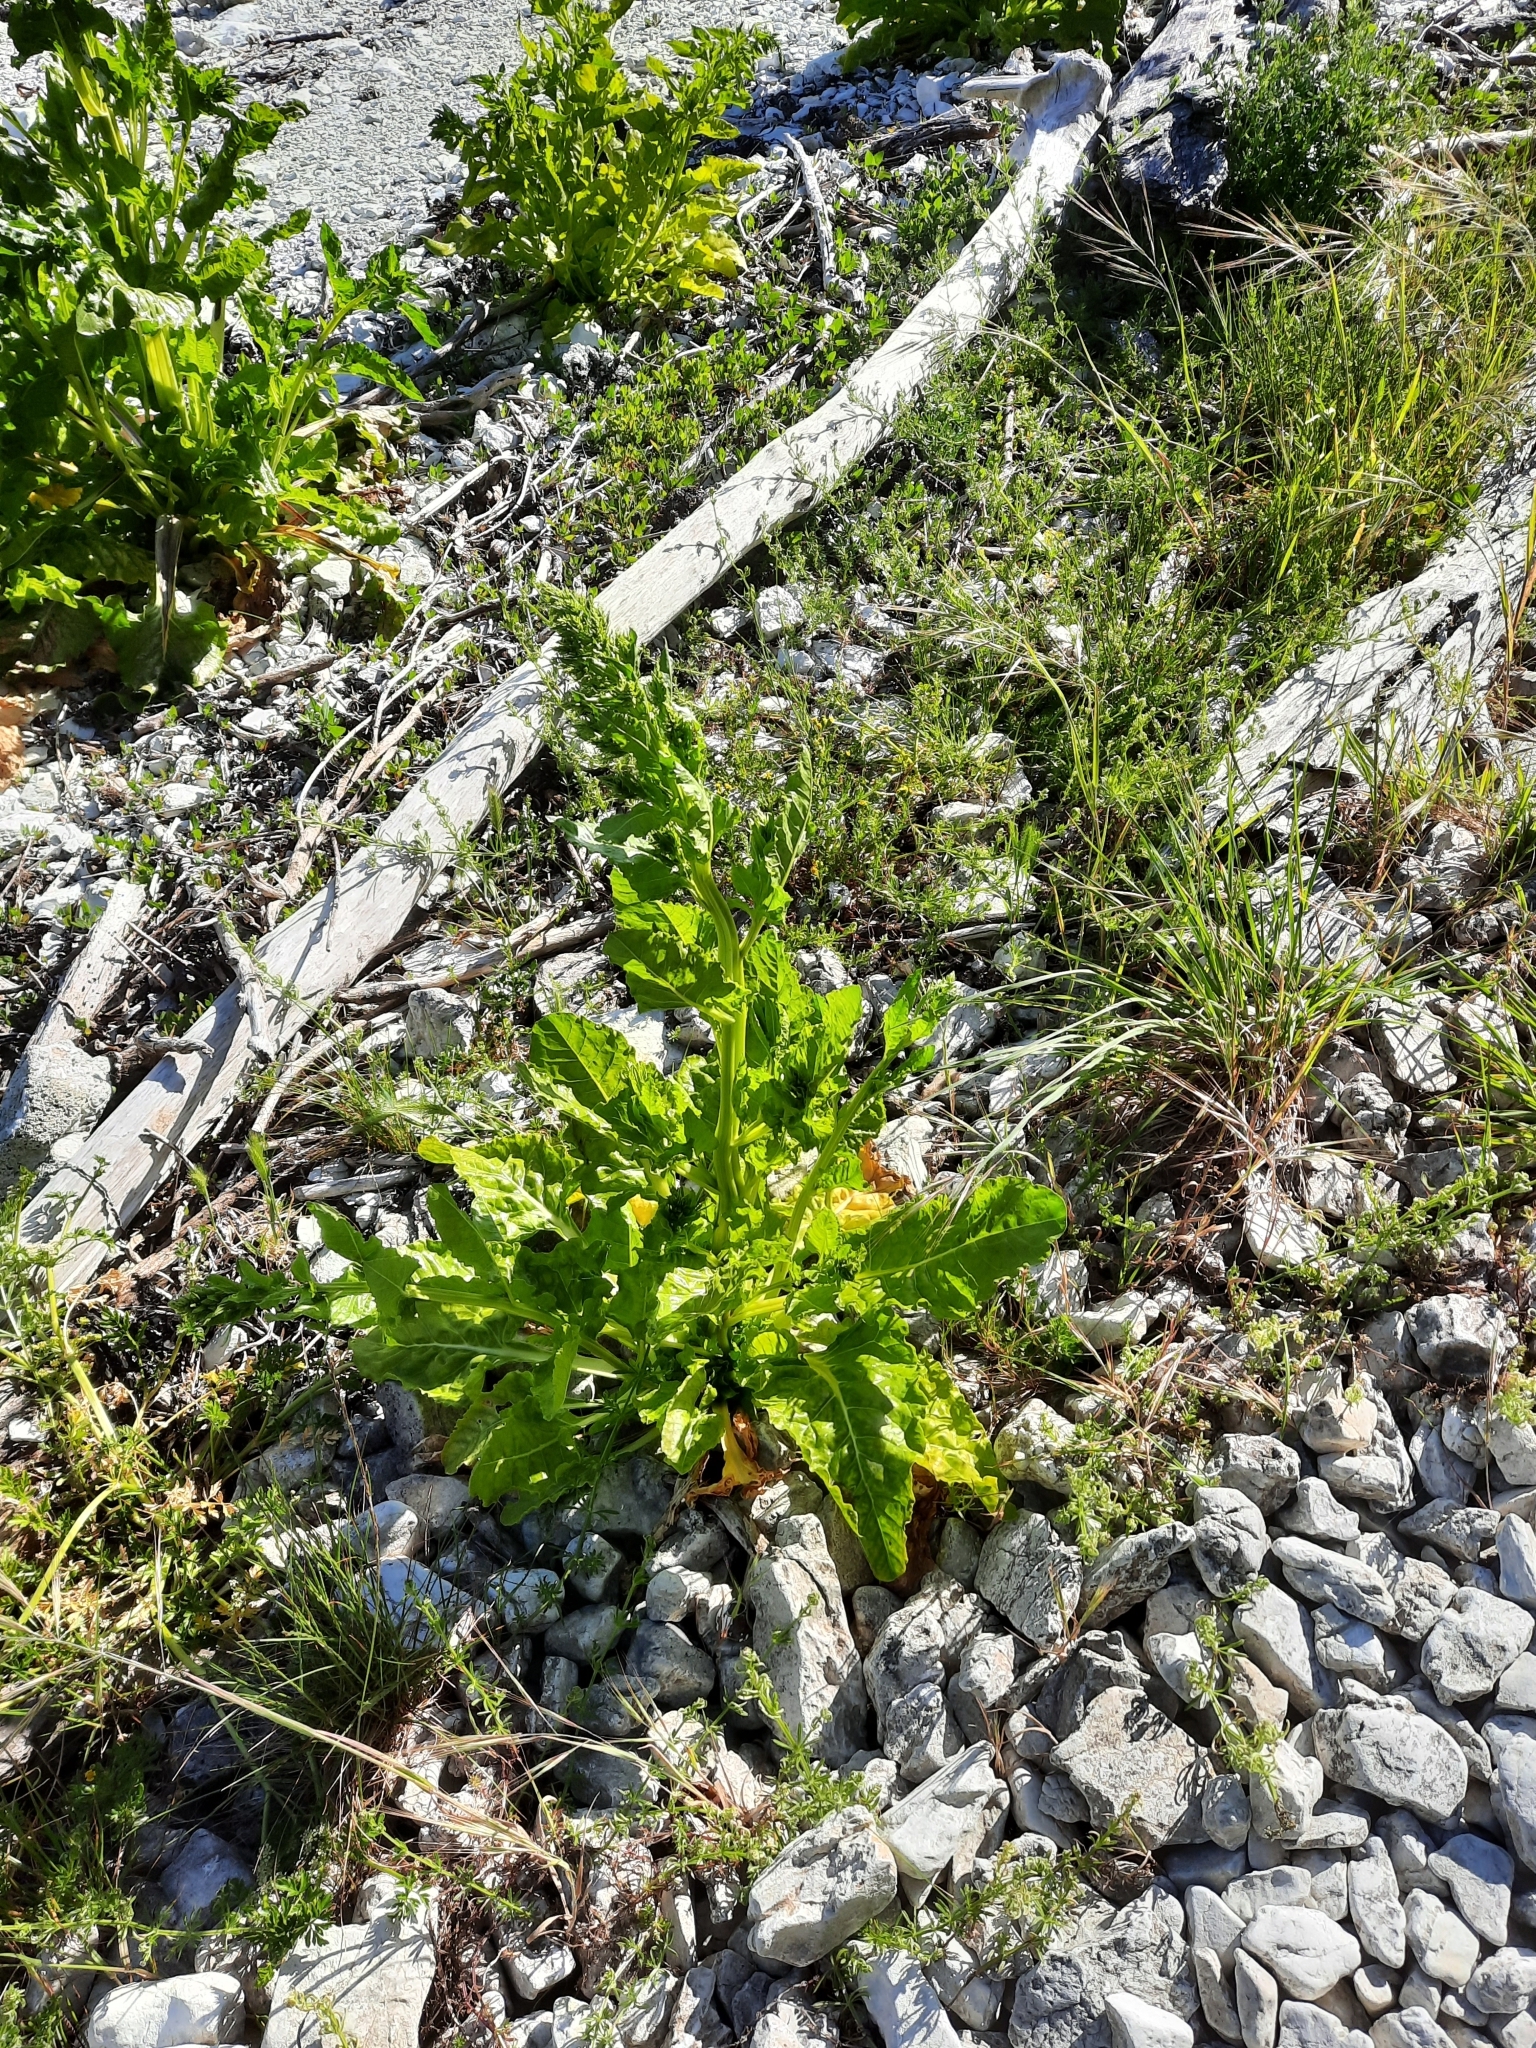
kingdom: Plantae
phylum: Tracheophyta
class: Magnoliopsida
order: Caryophyllales
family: Amaranthaceae
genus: Beta
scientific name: Beta vulgaris
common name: Beet
